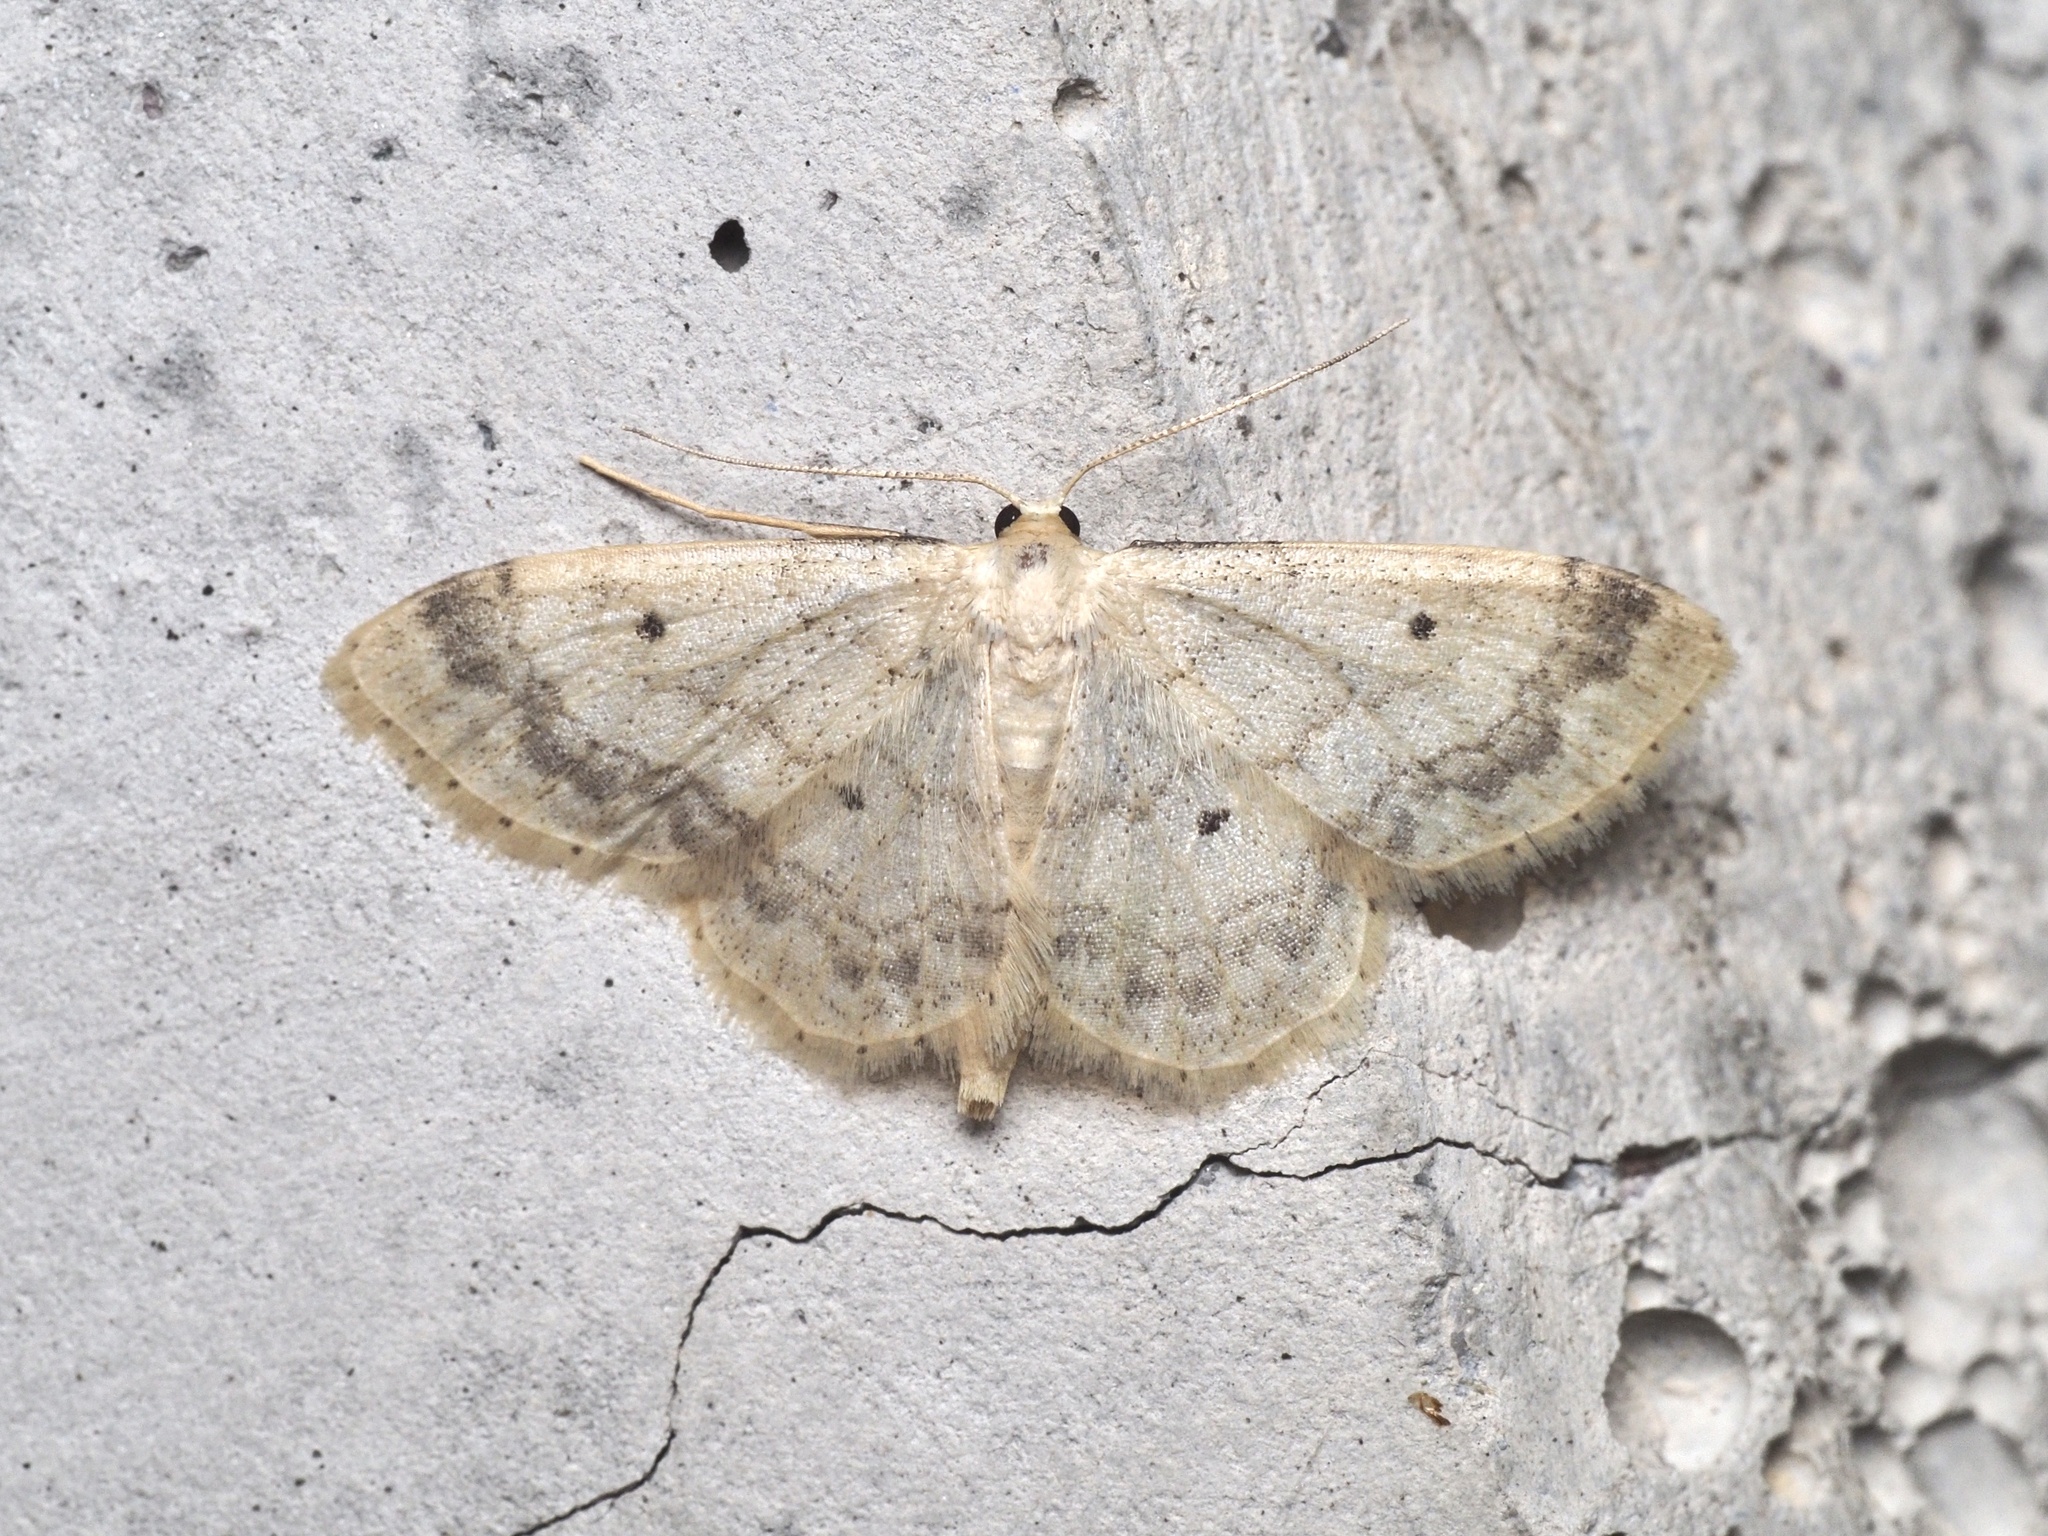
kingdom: Animalia
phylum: Arthropoda
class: Insecta
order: Lepidoptera
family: Geometridae
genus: Idaea
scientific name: Idaea biselata
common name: Small fan-footed wave
